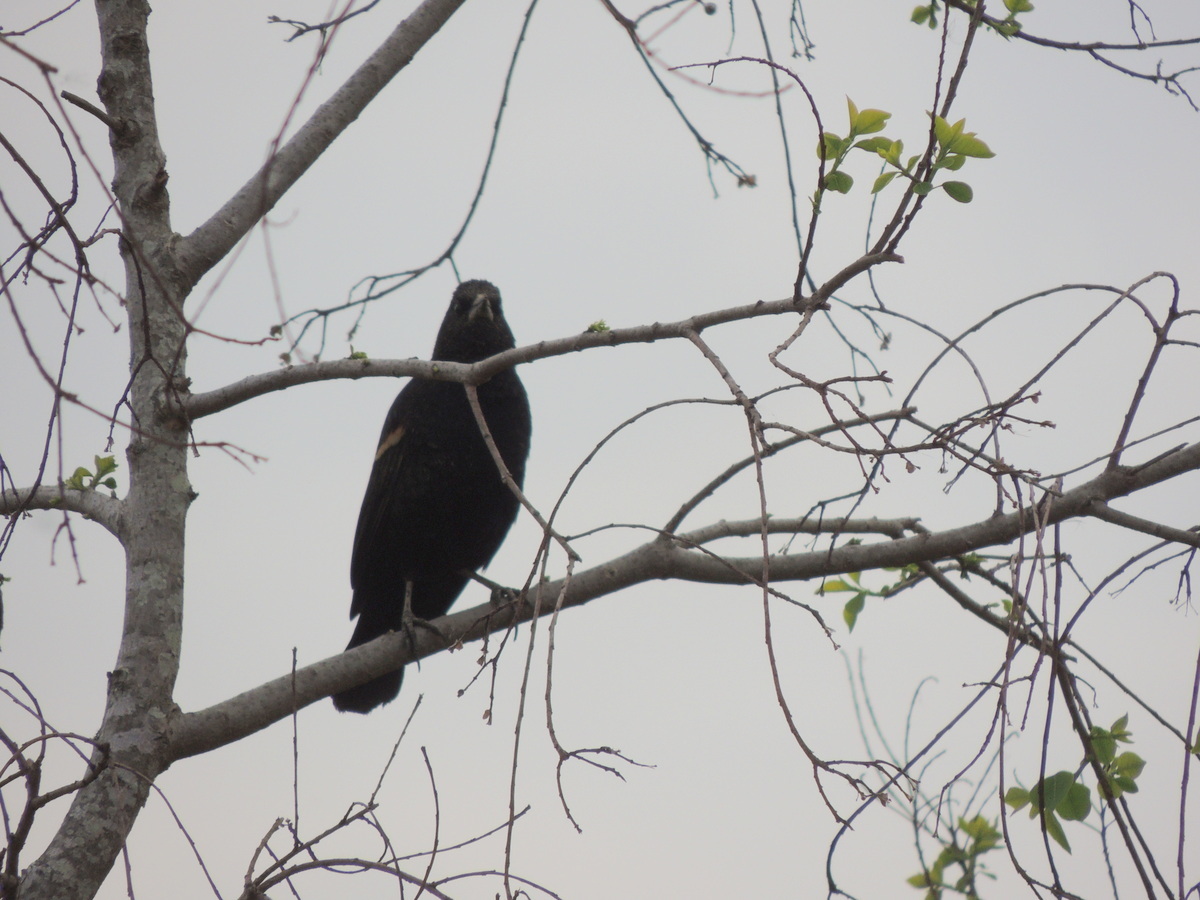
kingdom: Animalia
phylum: Chordata
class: Aves
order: Passeriformes
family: Icteridae
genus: Agelaius
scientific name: Agelaius phoeniceus
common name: Red-winged blackbird
